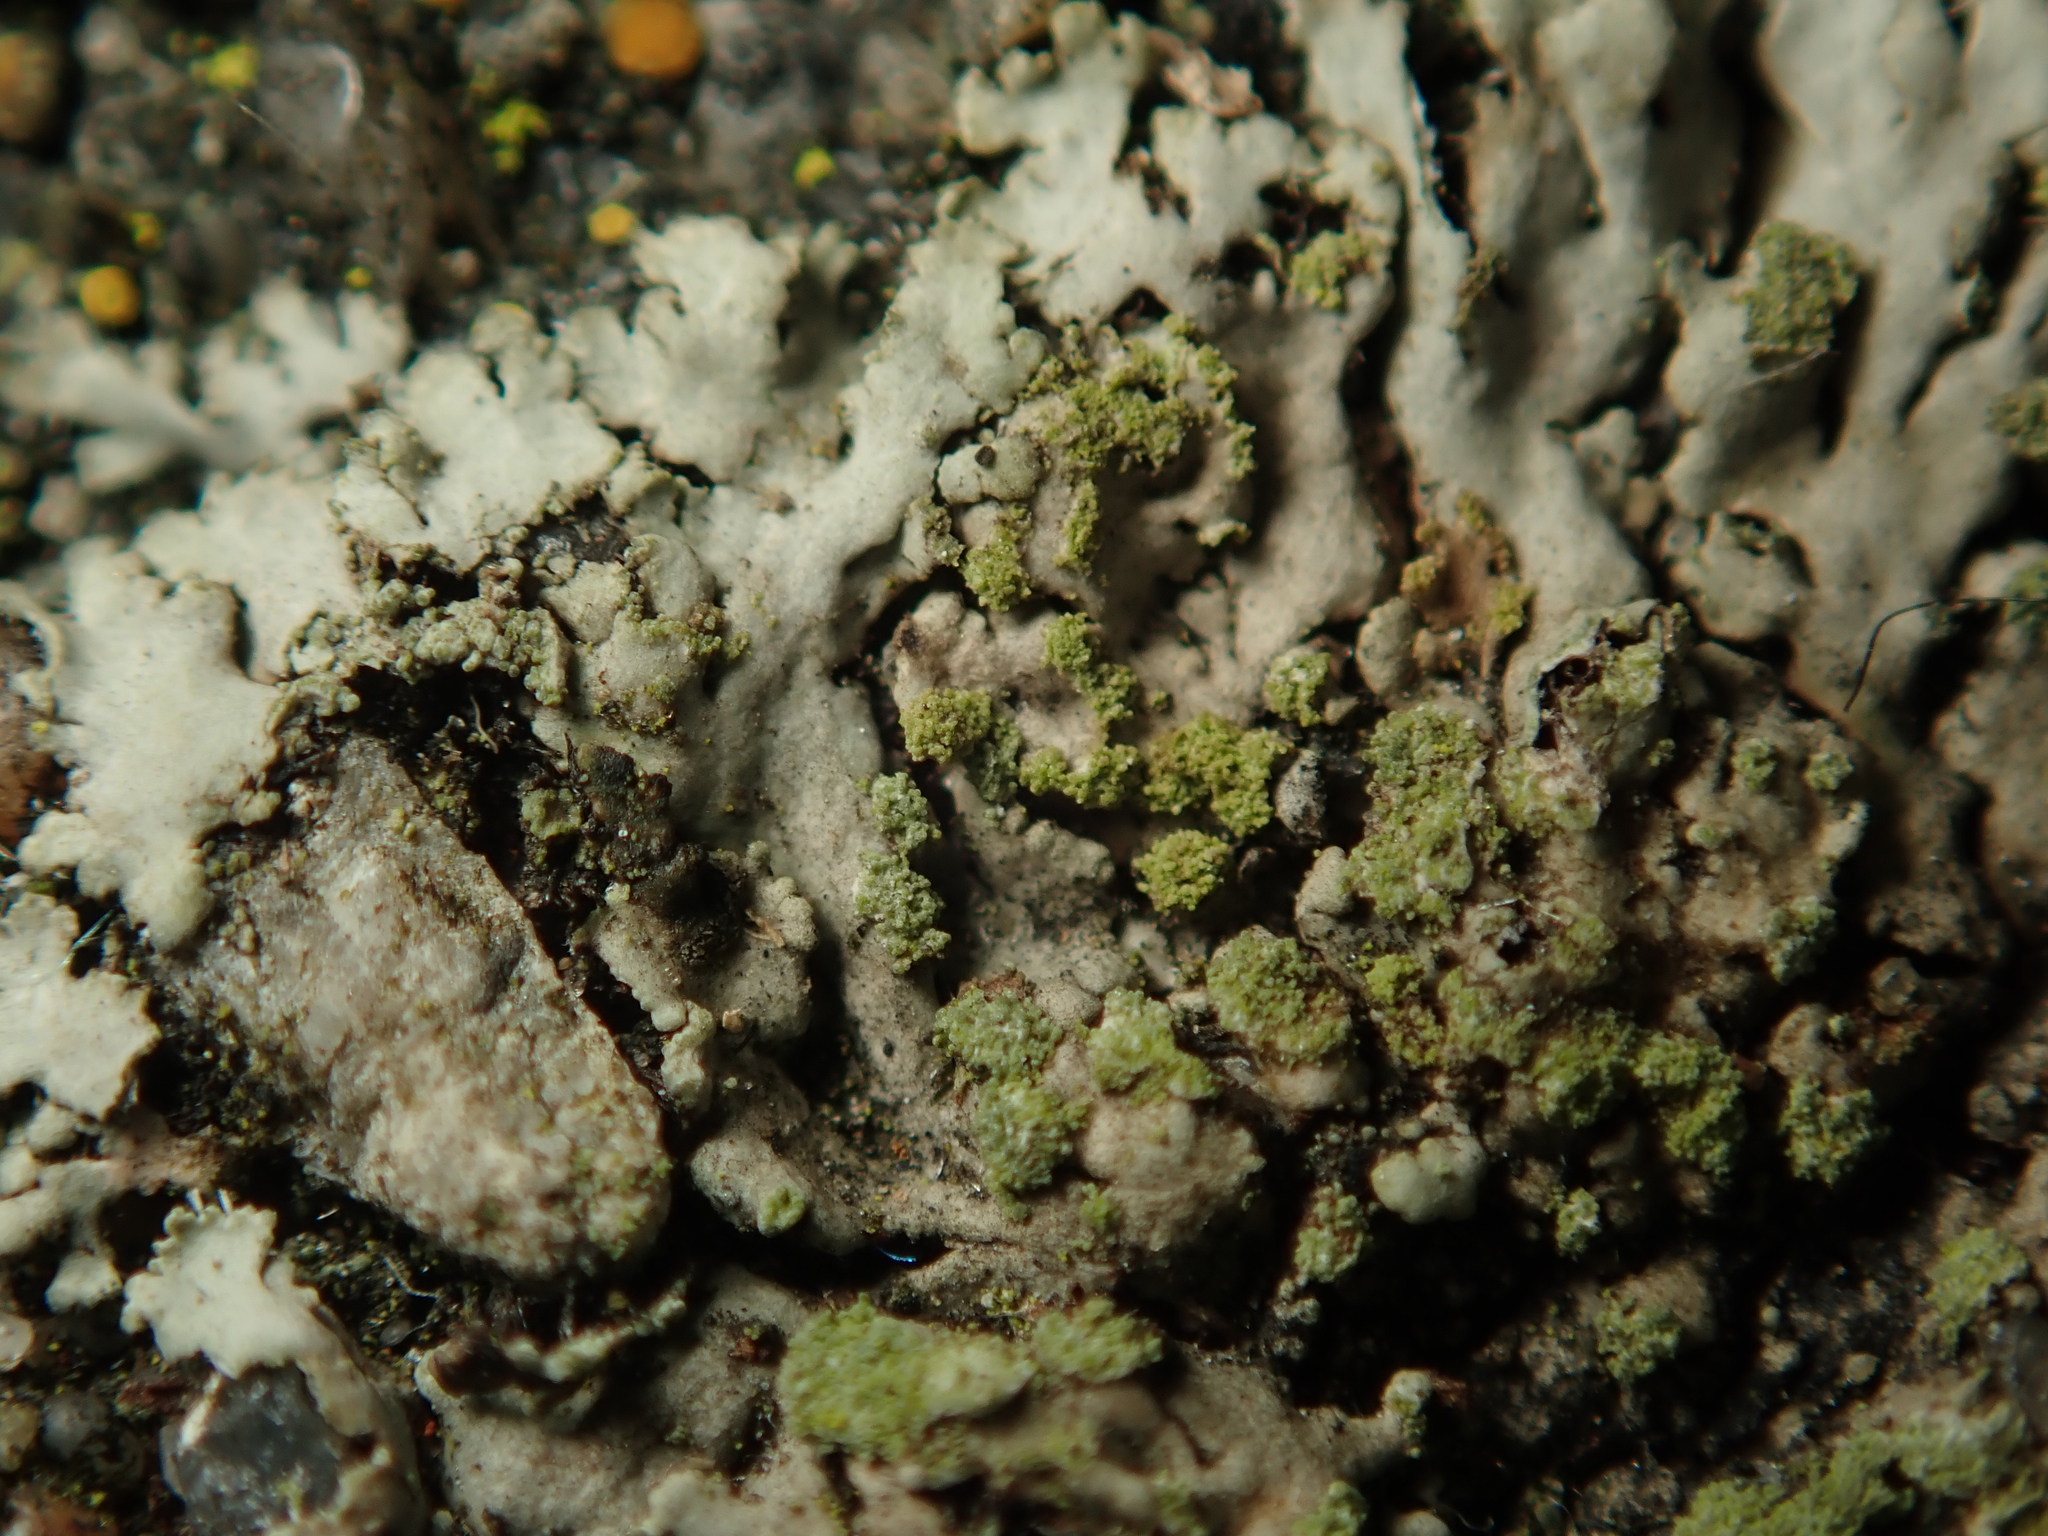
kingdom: Fungi
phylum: Ascomycota
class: Lecanoromycetes
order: Caliciales
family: Physciaceae
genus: Phaeophyscia
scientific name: Phaeophyscia orbicularis
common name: Mealy shadow lichen
